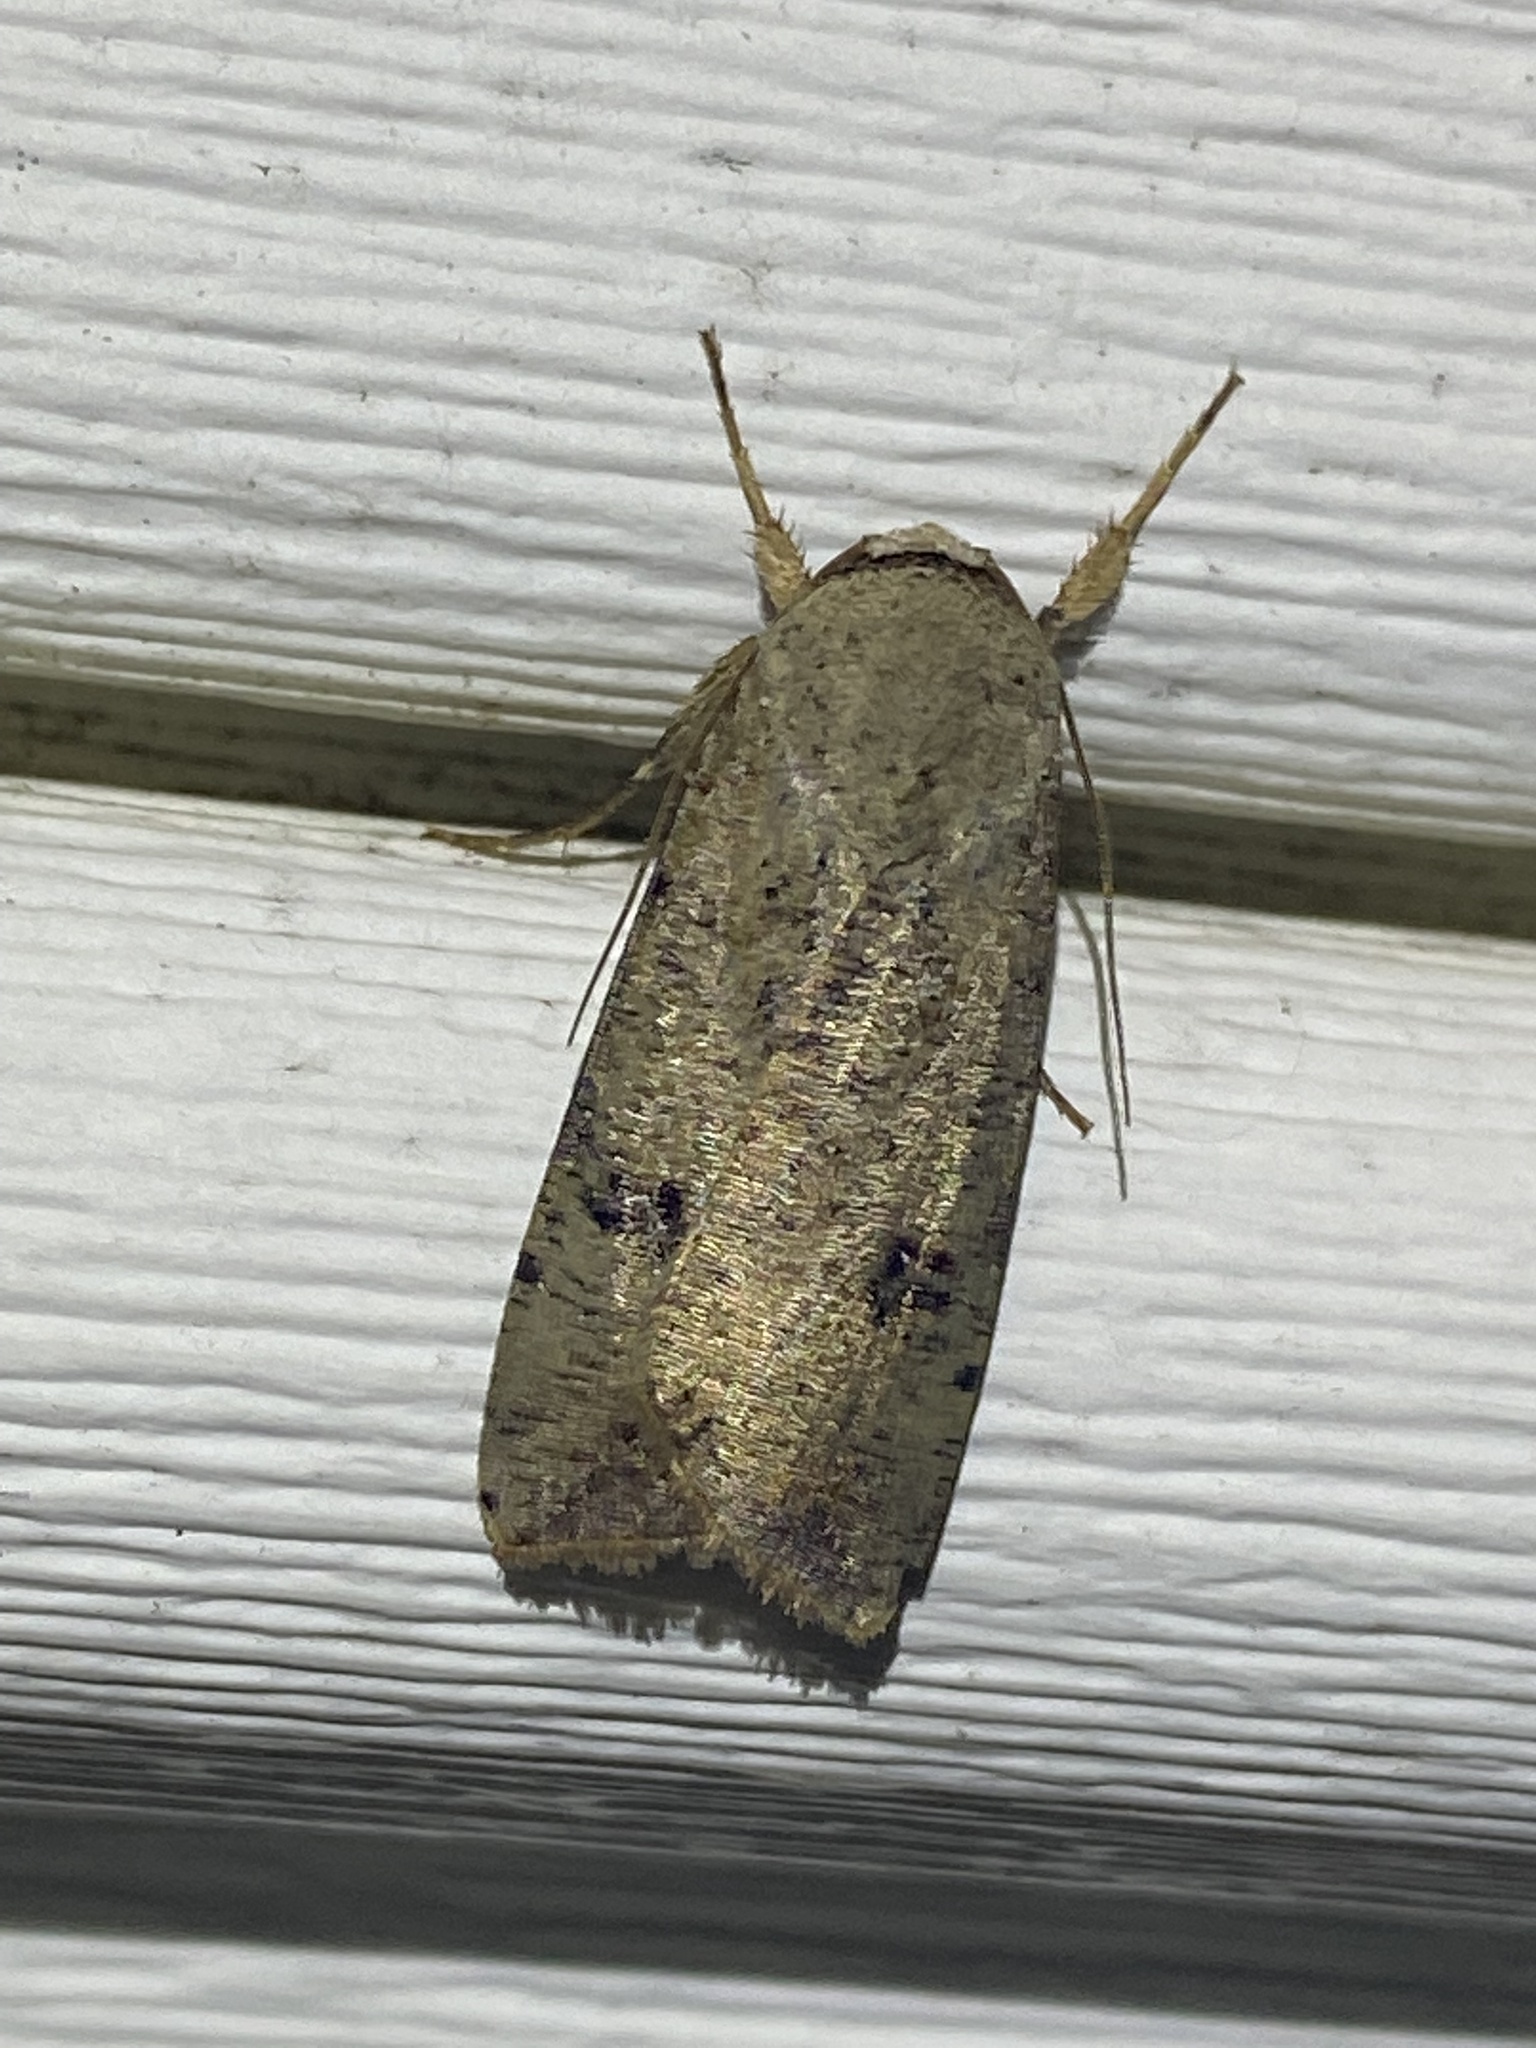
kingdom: Animalia
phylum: Arthropoda
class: Insecta
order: Lepidoptera
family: Noctuidae
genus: Anicla
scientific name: Anicla infecta
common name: Green cutworm
